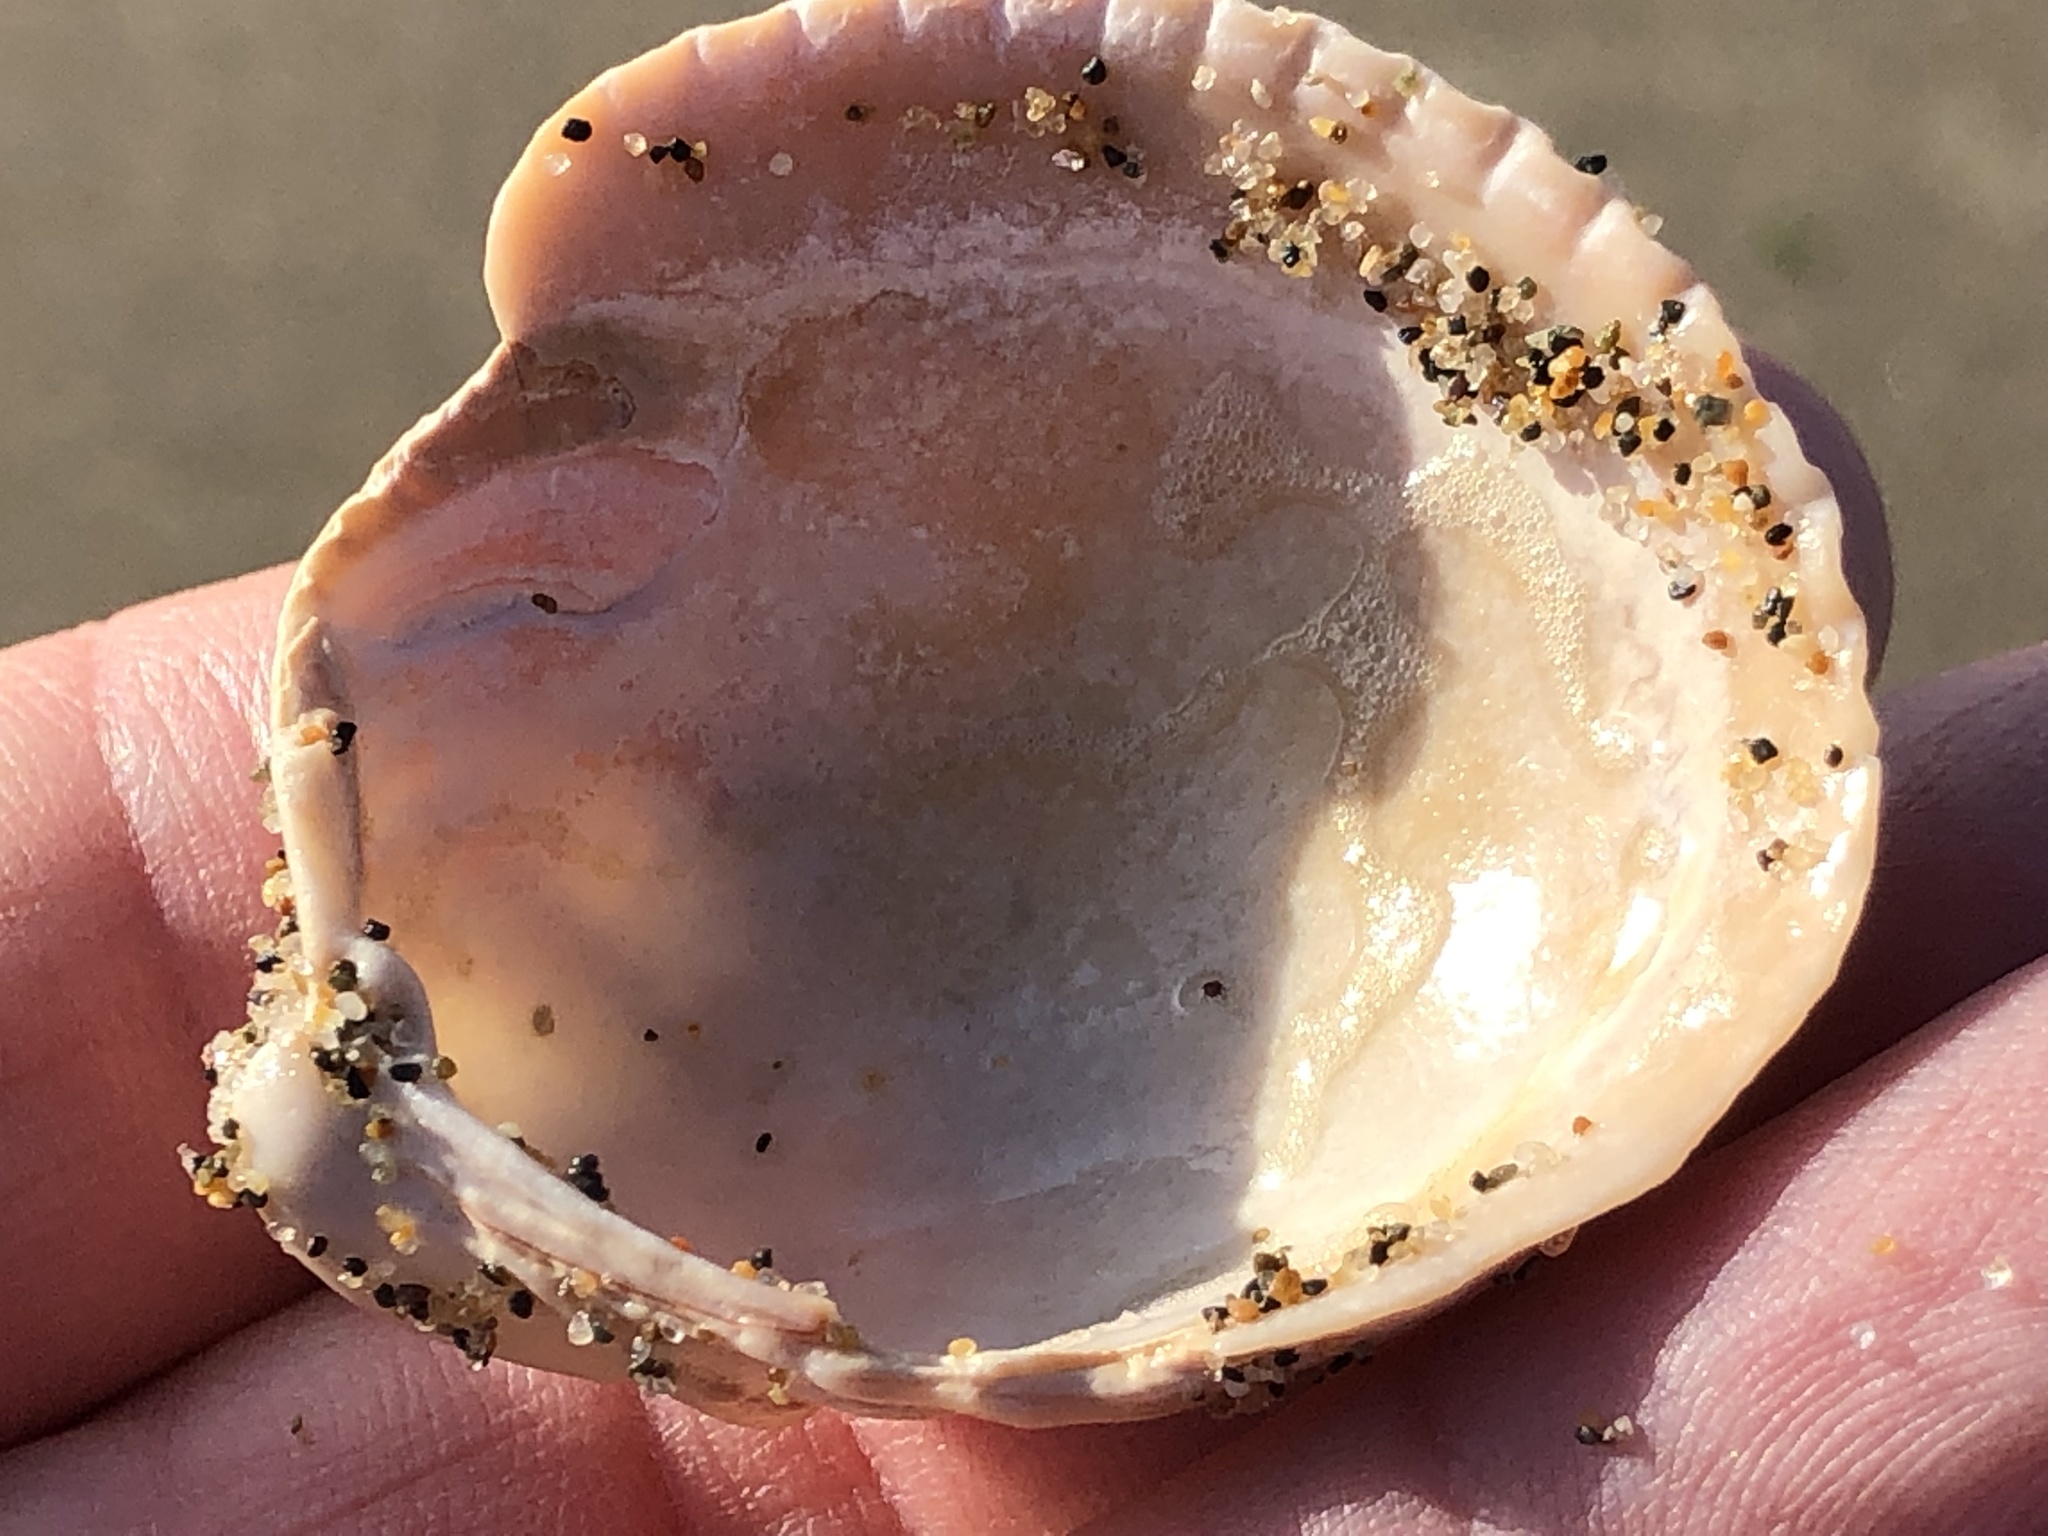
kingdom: Animalia
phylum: Mollusca
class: Bivalvia
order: Cardiida
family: Cardiidae
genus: Clinocardium
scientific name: Clinocardium nuttallii
